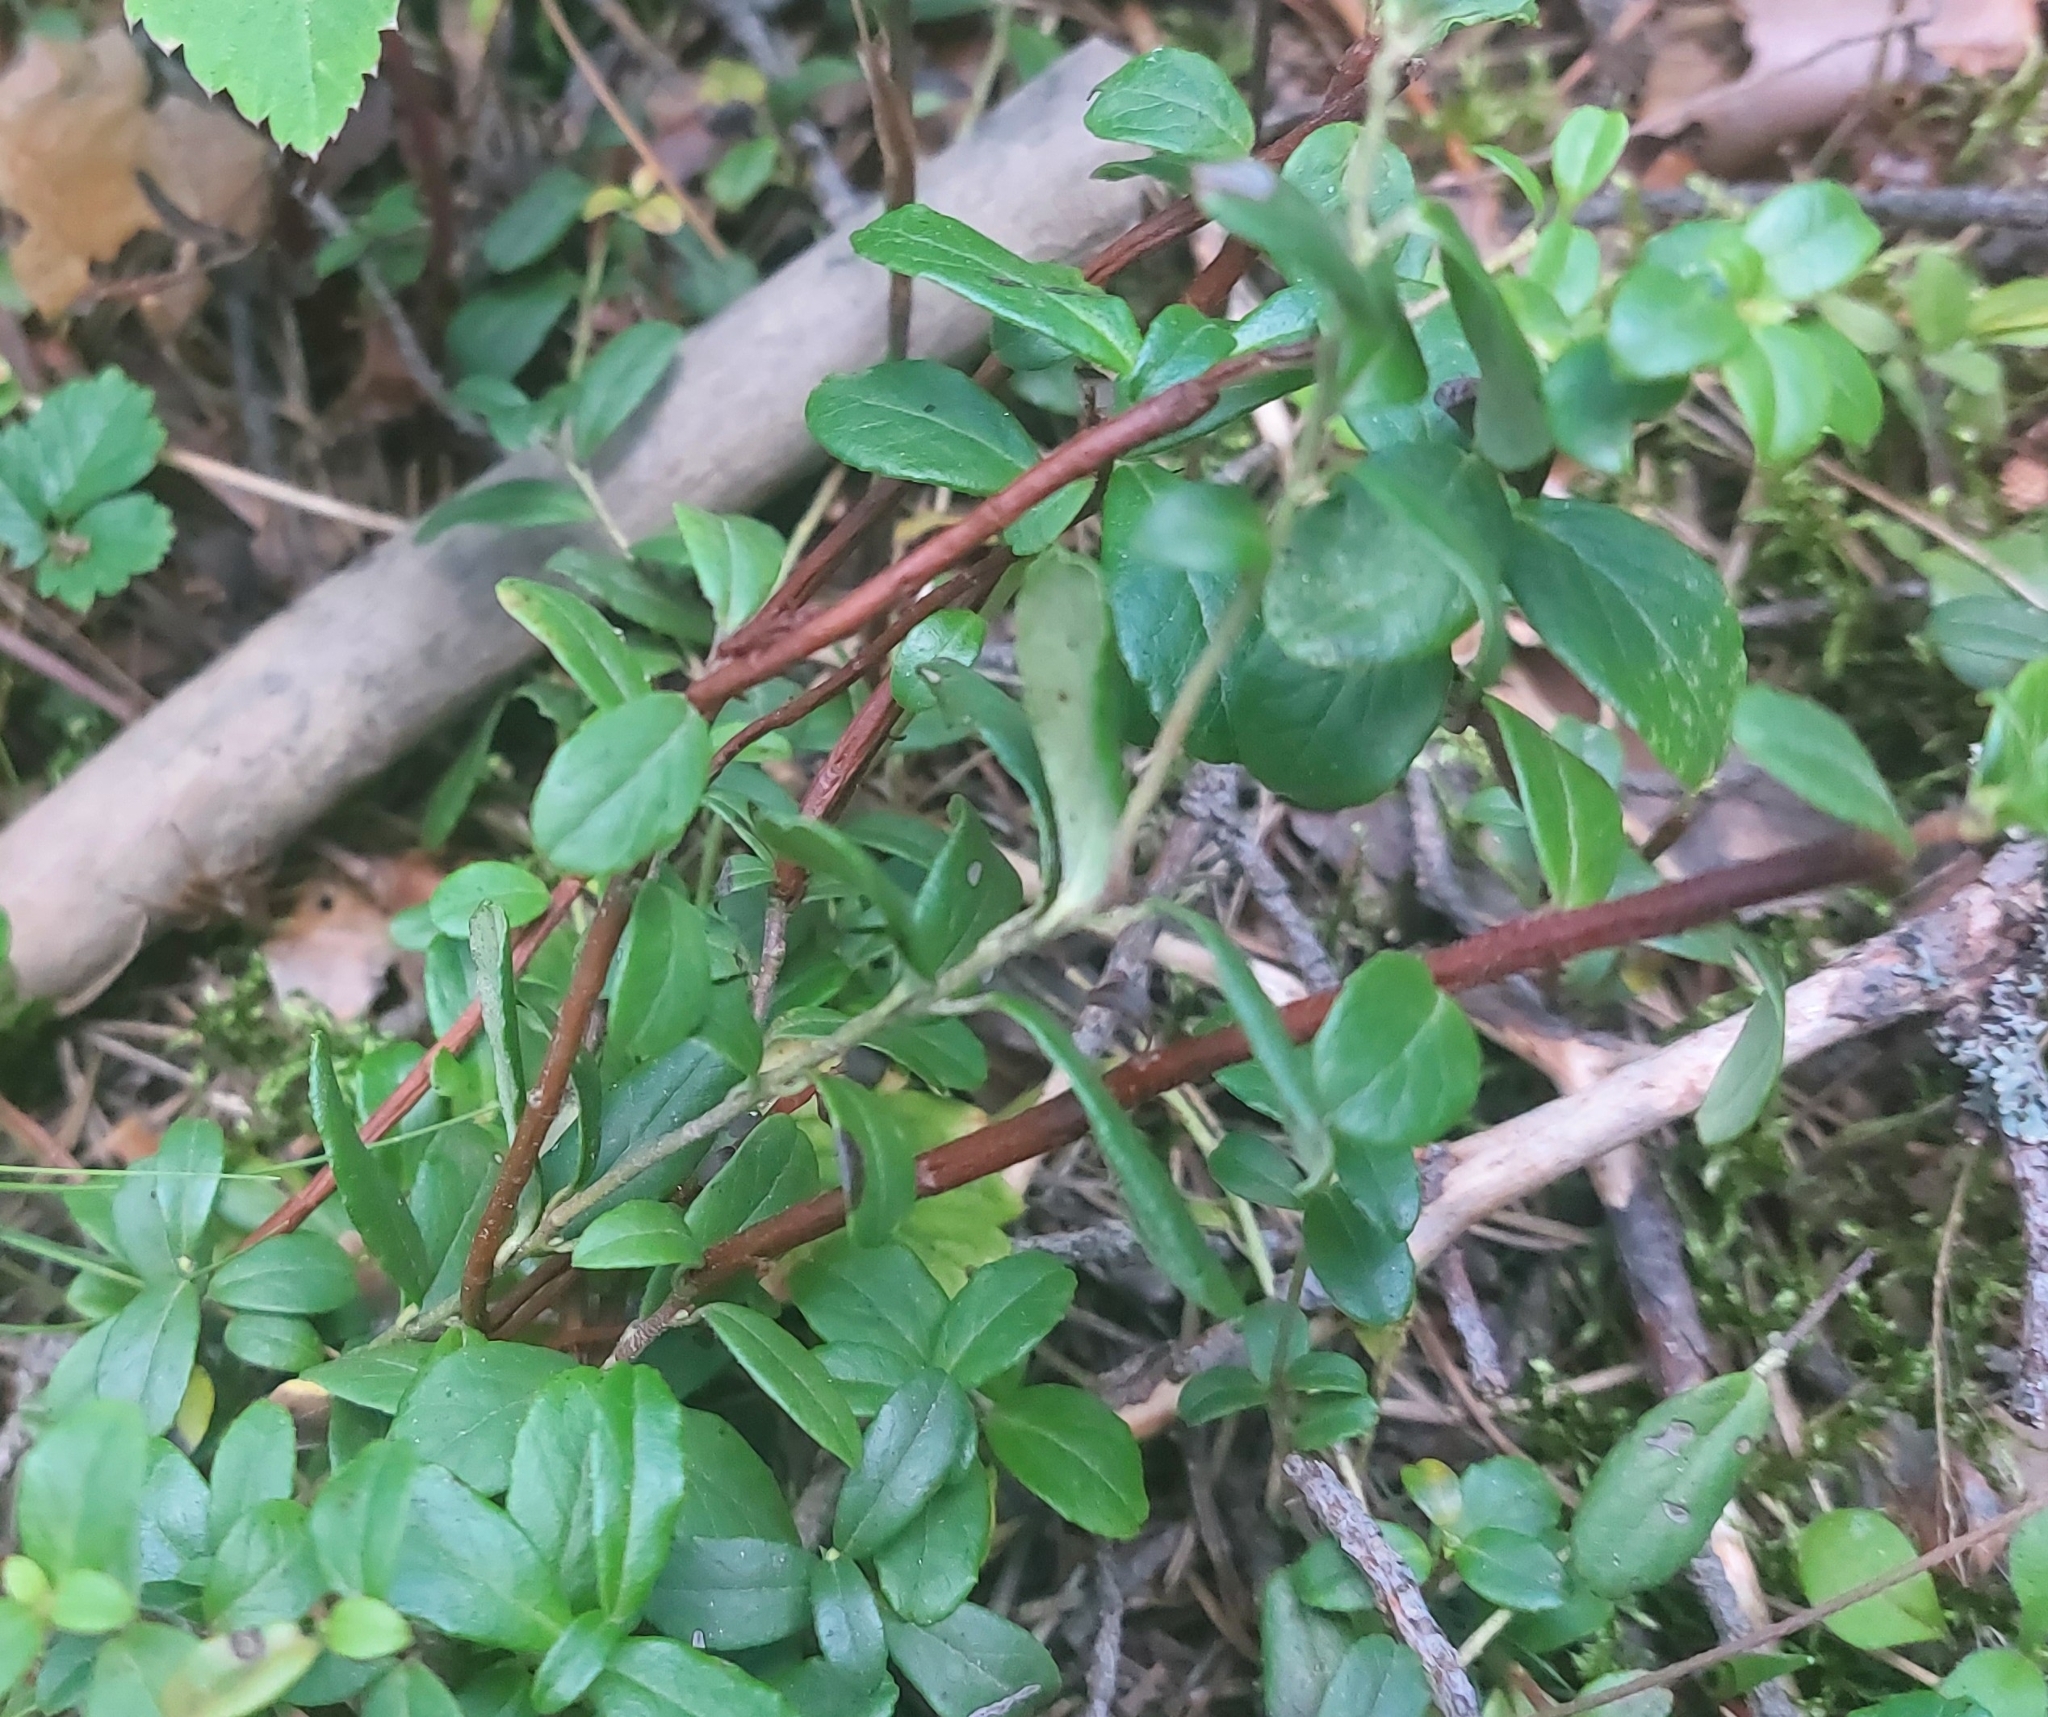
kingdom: Plantae
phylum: Tracheophyta
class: Magnoliopsida
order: Ericales
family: Ericaceae
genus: Vaccinium
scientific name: Vaccinium vitis-idaea
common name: Cowberry
